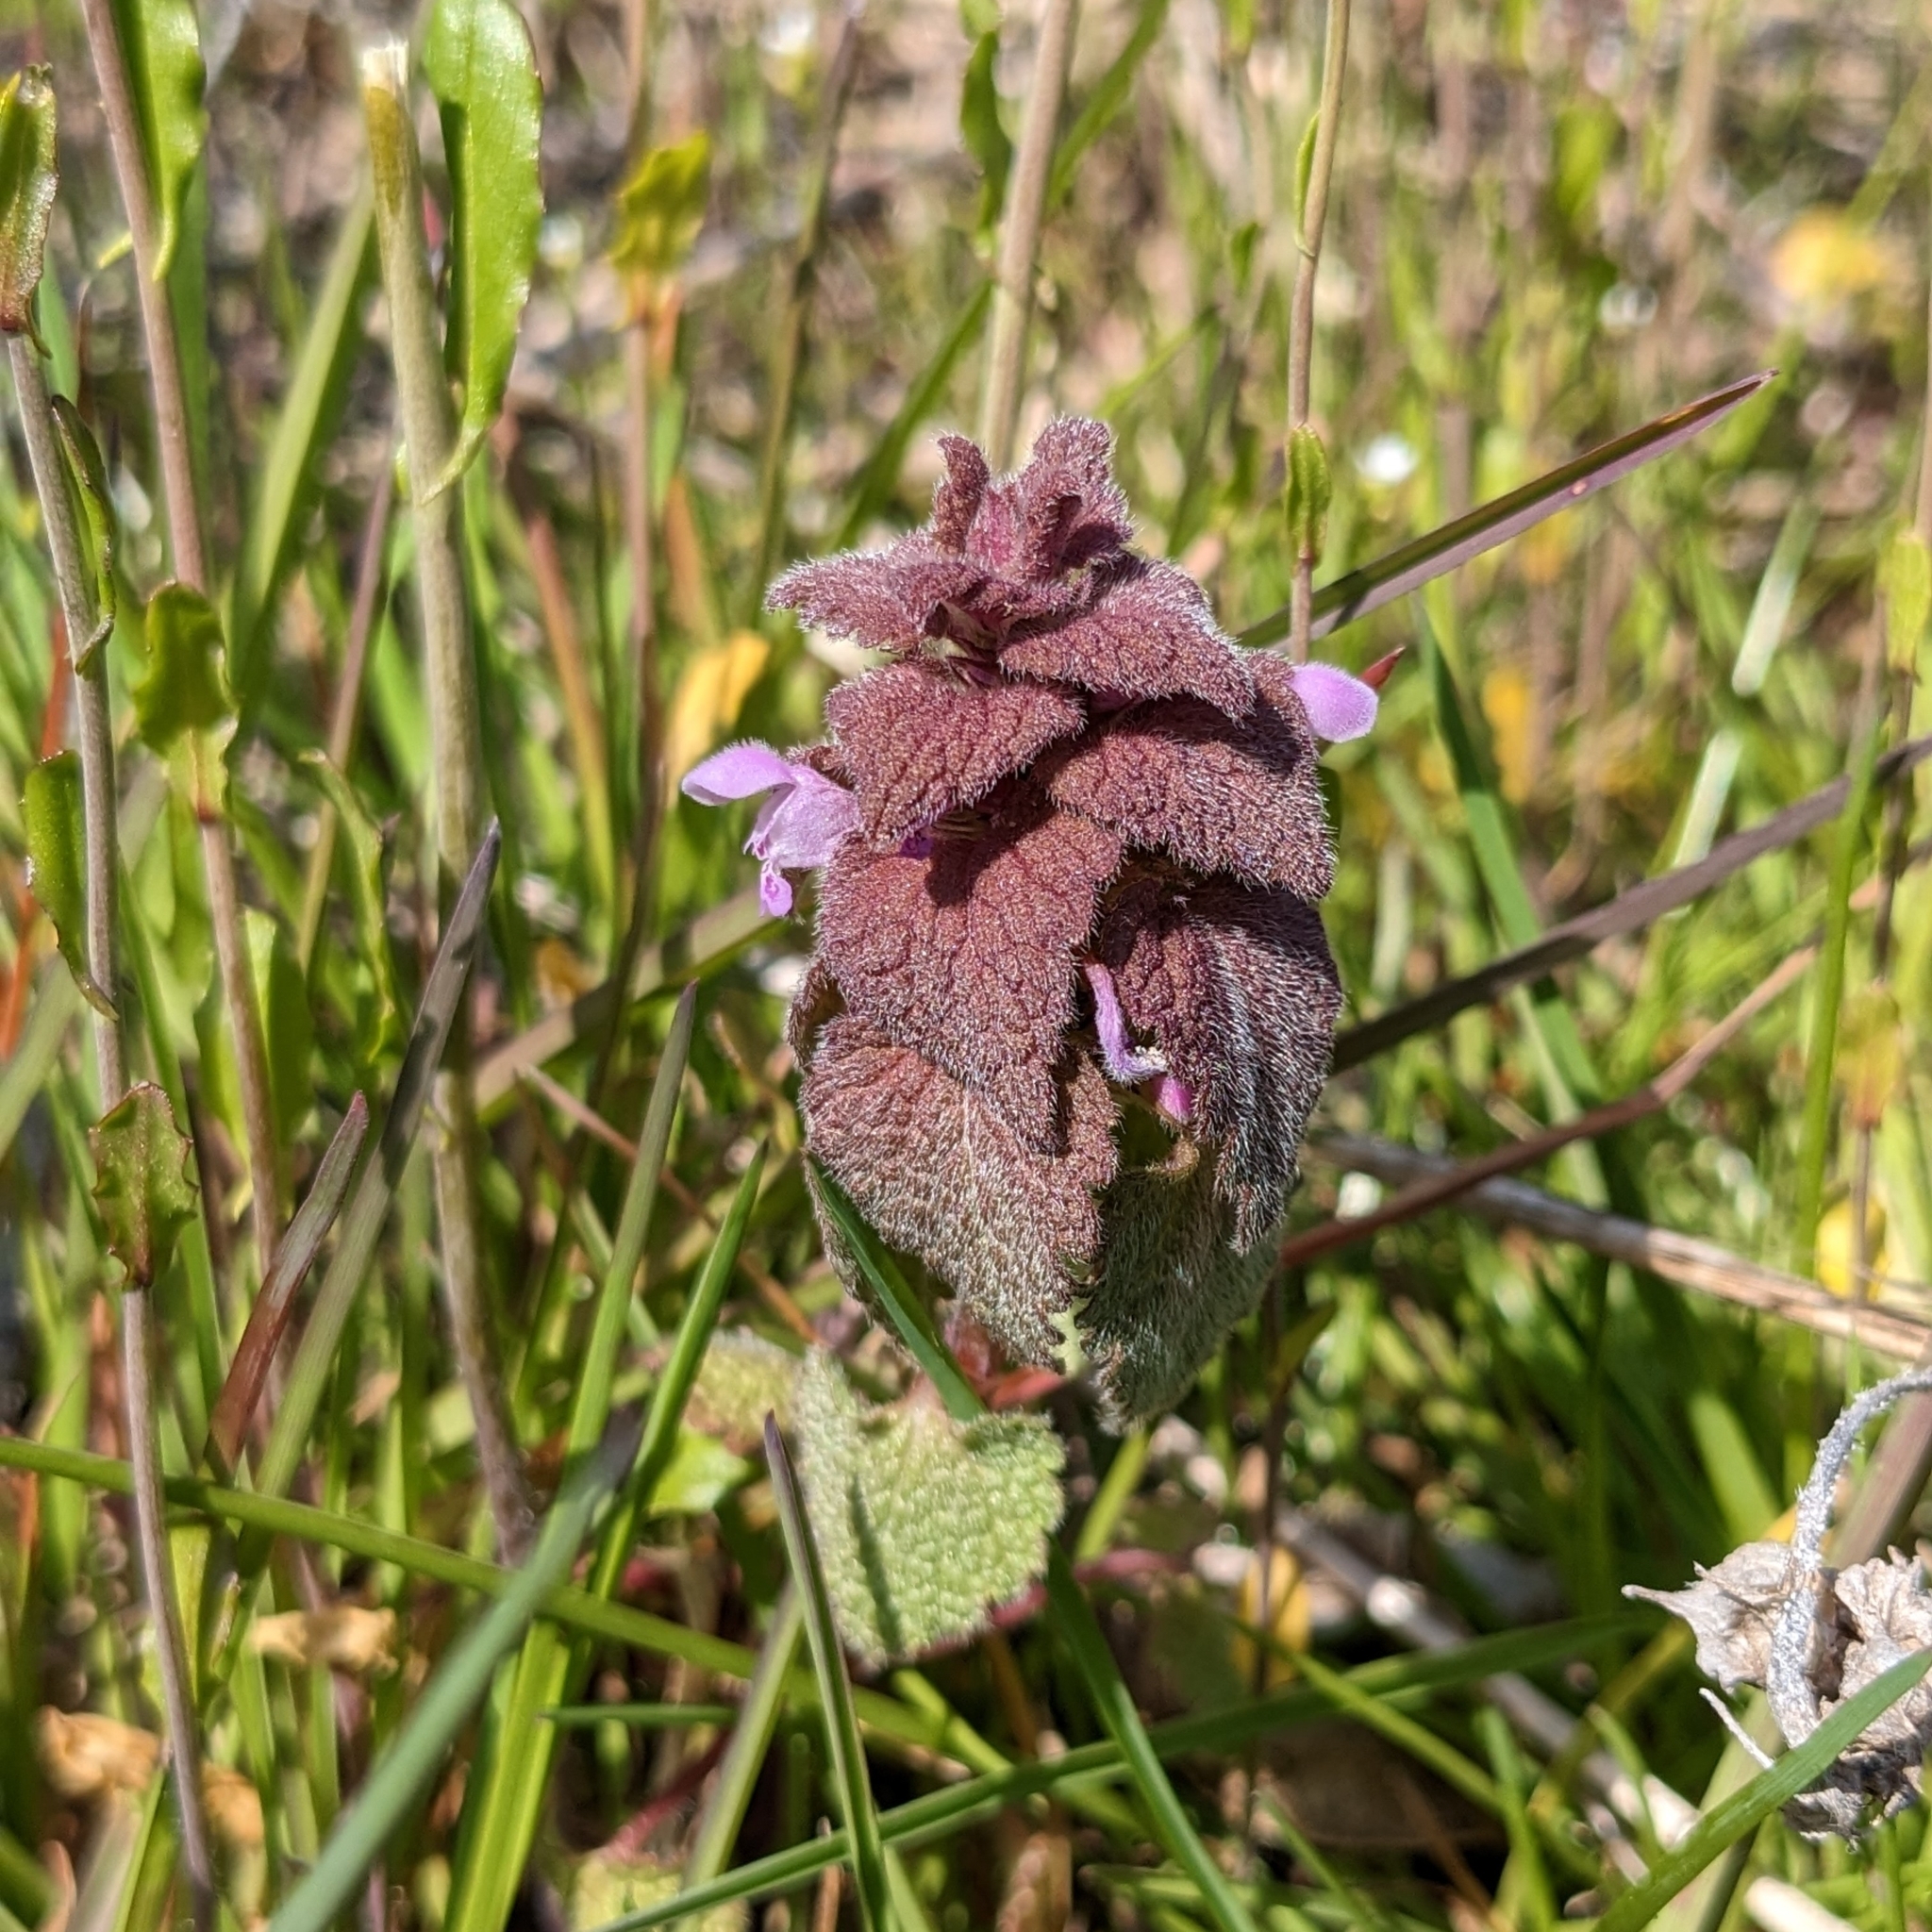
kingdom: Plantae
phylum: Tracheophyta
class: Magnoliopsida
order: Lamiales
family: Lamiaceae
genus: Lamium
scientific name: Lamium purpureum
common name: Red dead-nettle
